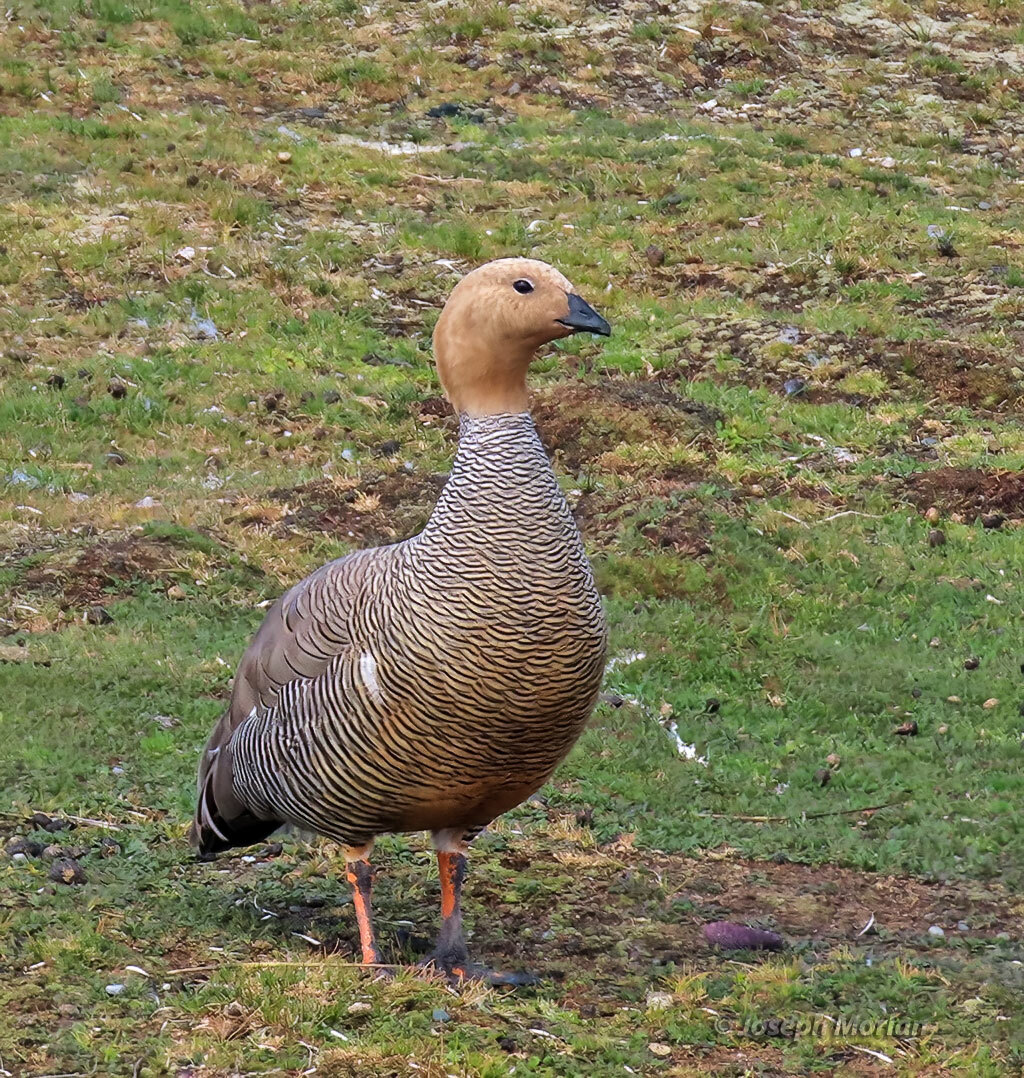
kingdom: Animalia
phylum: Chordata
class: Aves
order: Anseriformes
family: Anatidae
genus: Chloephaga
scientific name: Chloephaga rubidiceps
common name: Ruddy-headed goose
